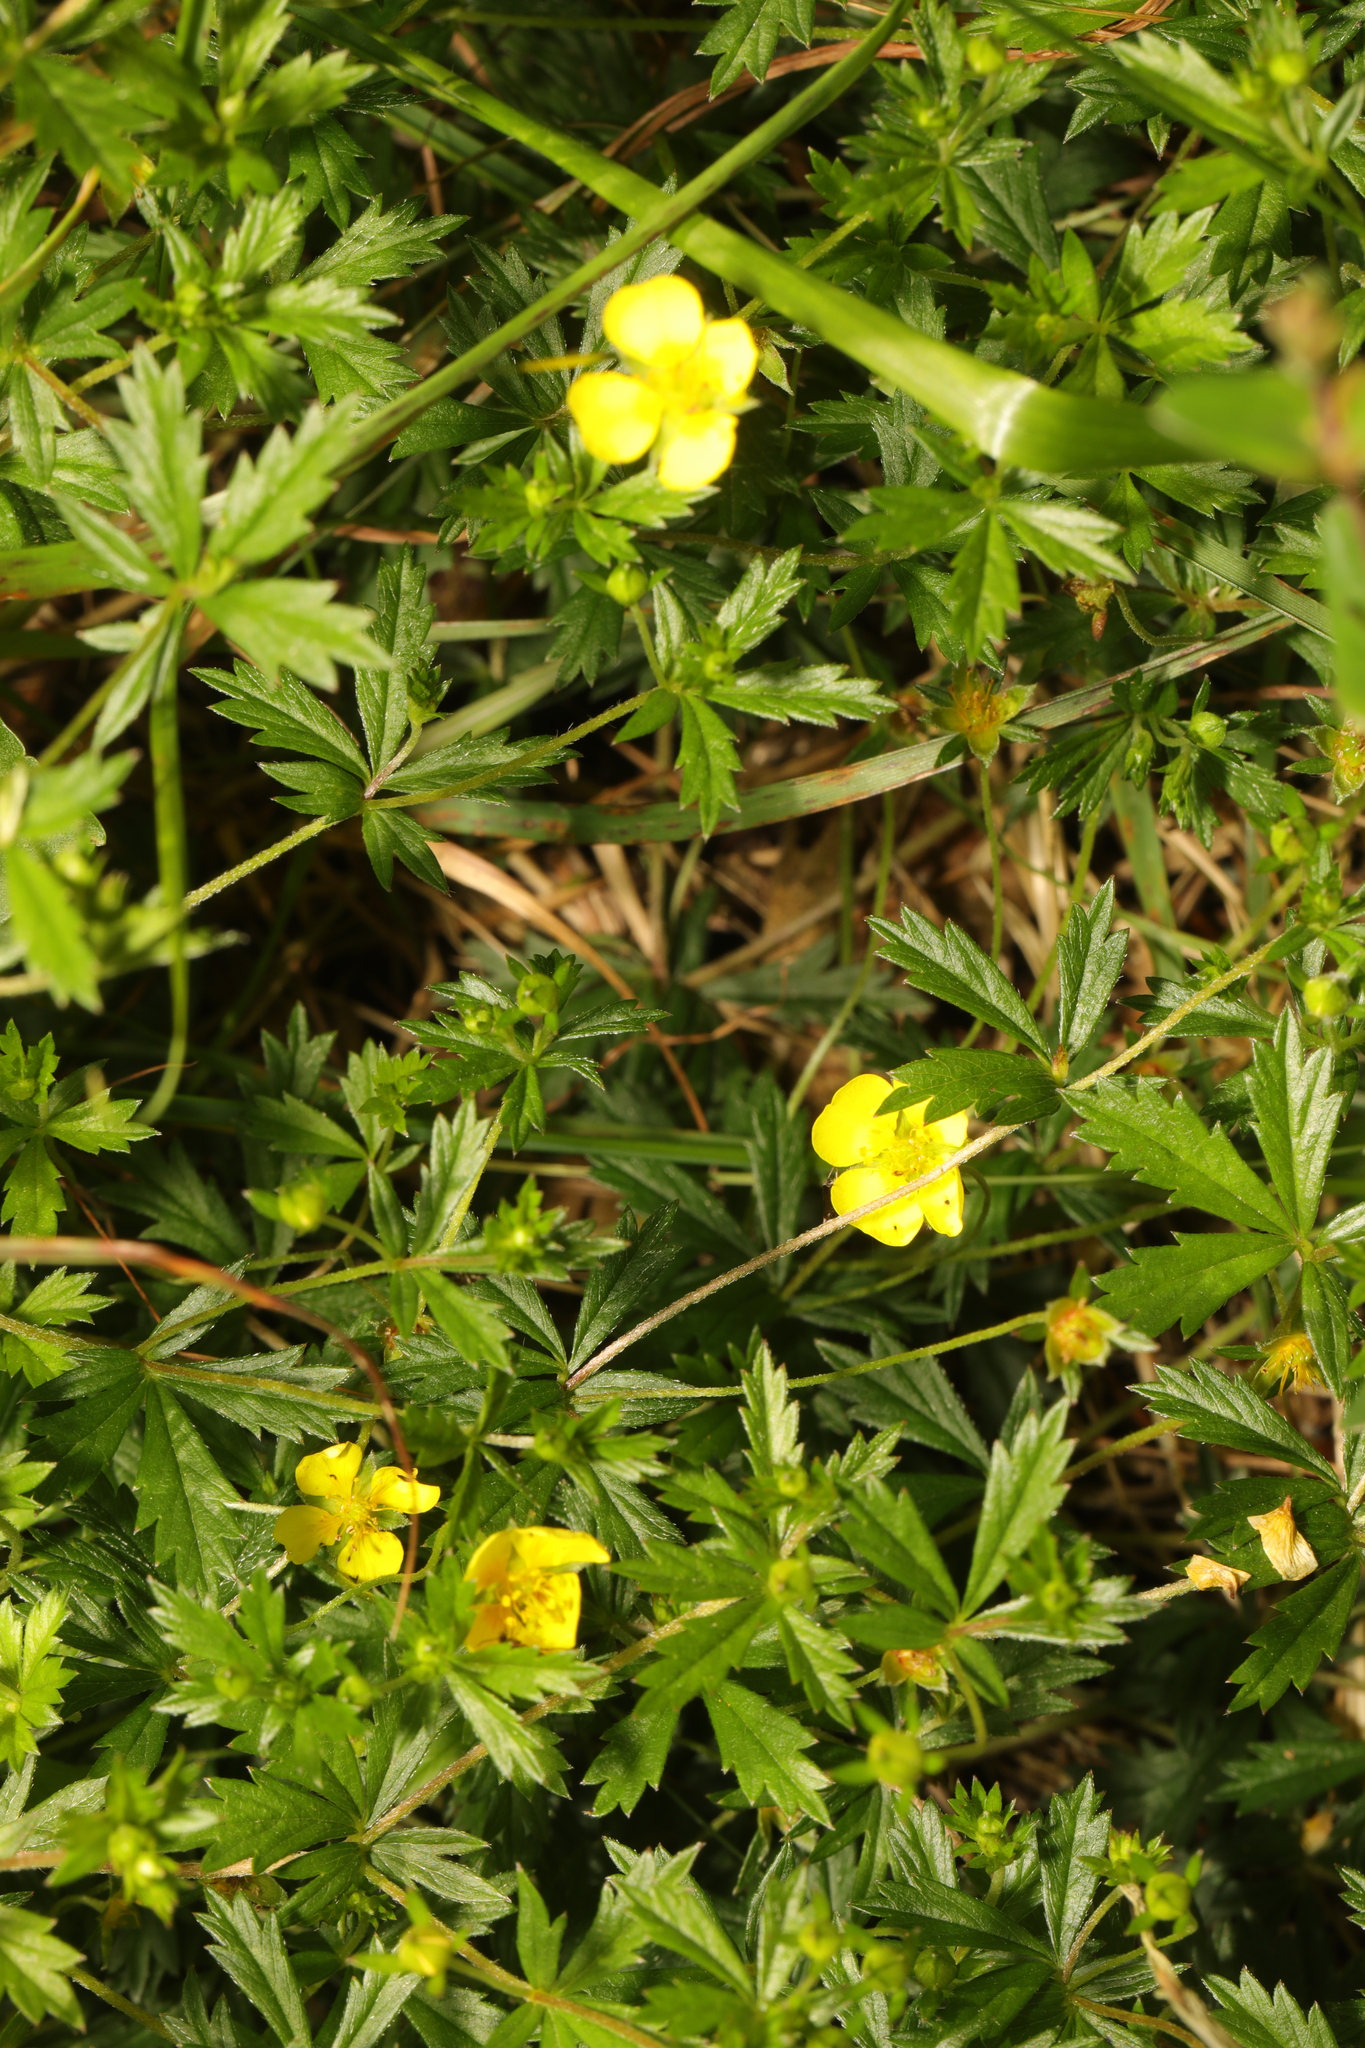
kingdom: Plantae
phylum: Tracheophyta
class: Magnoliopsida
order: Rosales
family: Rosaceae
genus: Potentilla
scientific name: Potentilla erecta
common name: Tormentil
